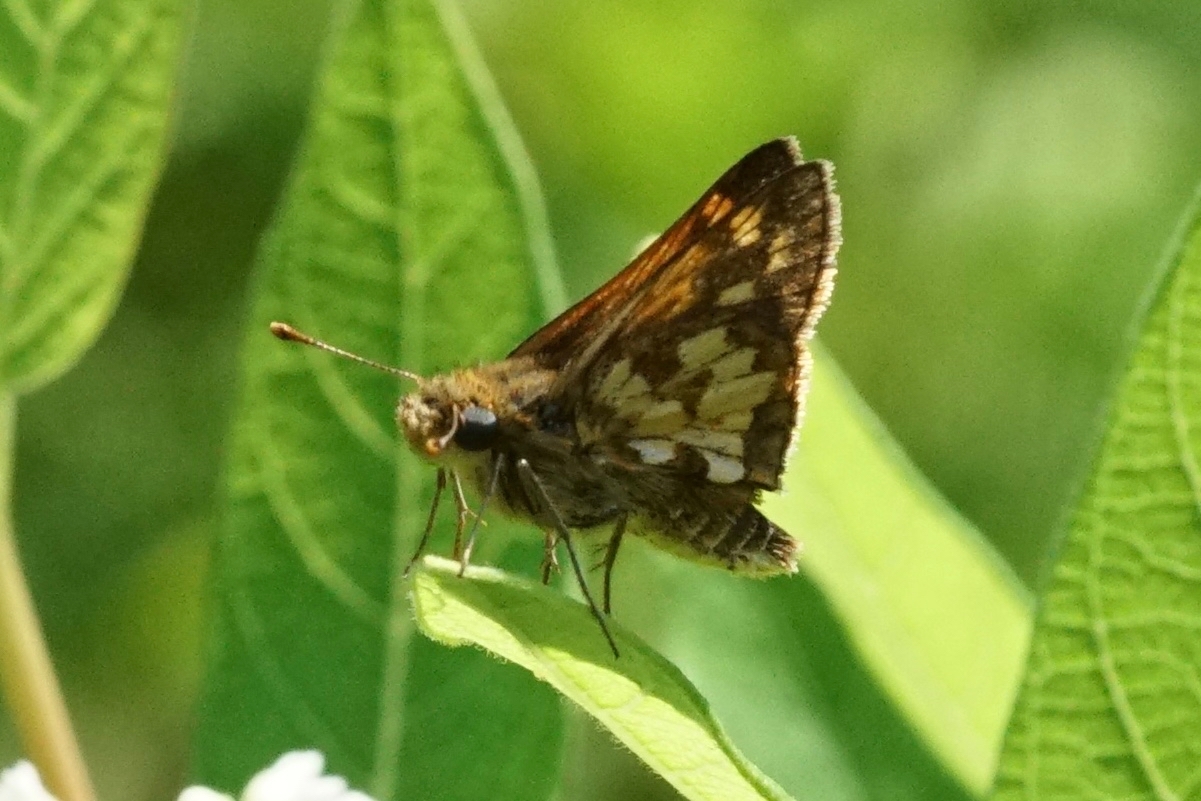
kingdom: Animalia
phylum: Arthropoda
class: Insecta
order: Lepidoptera
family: Hesperiidae
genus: Polites
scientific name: Polites coras
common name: Peck's skipper
